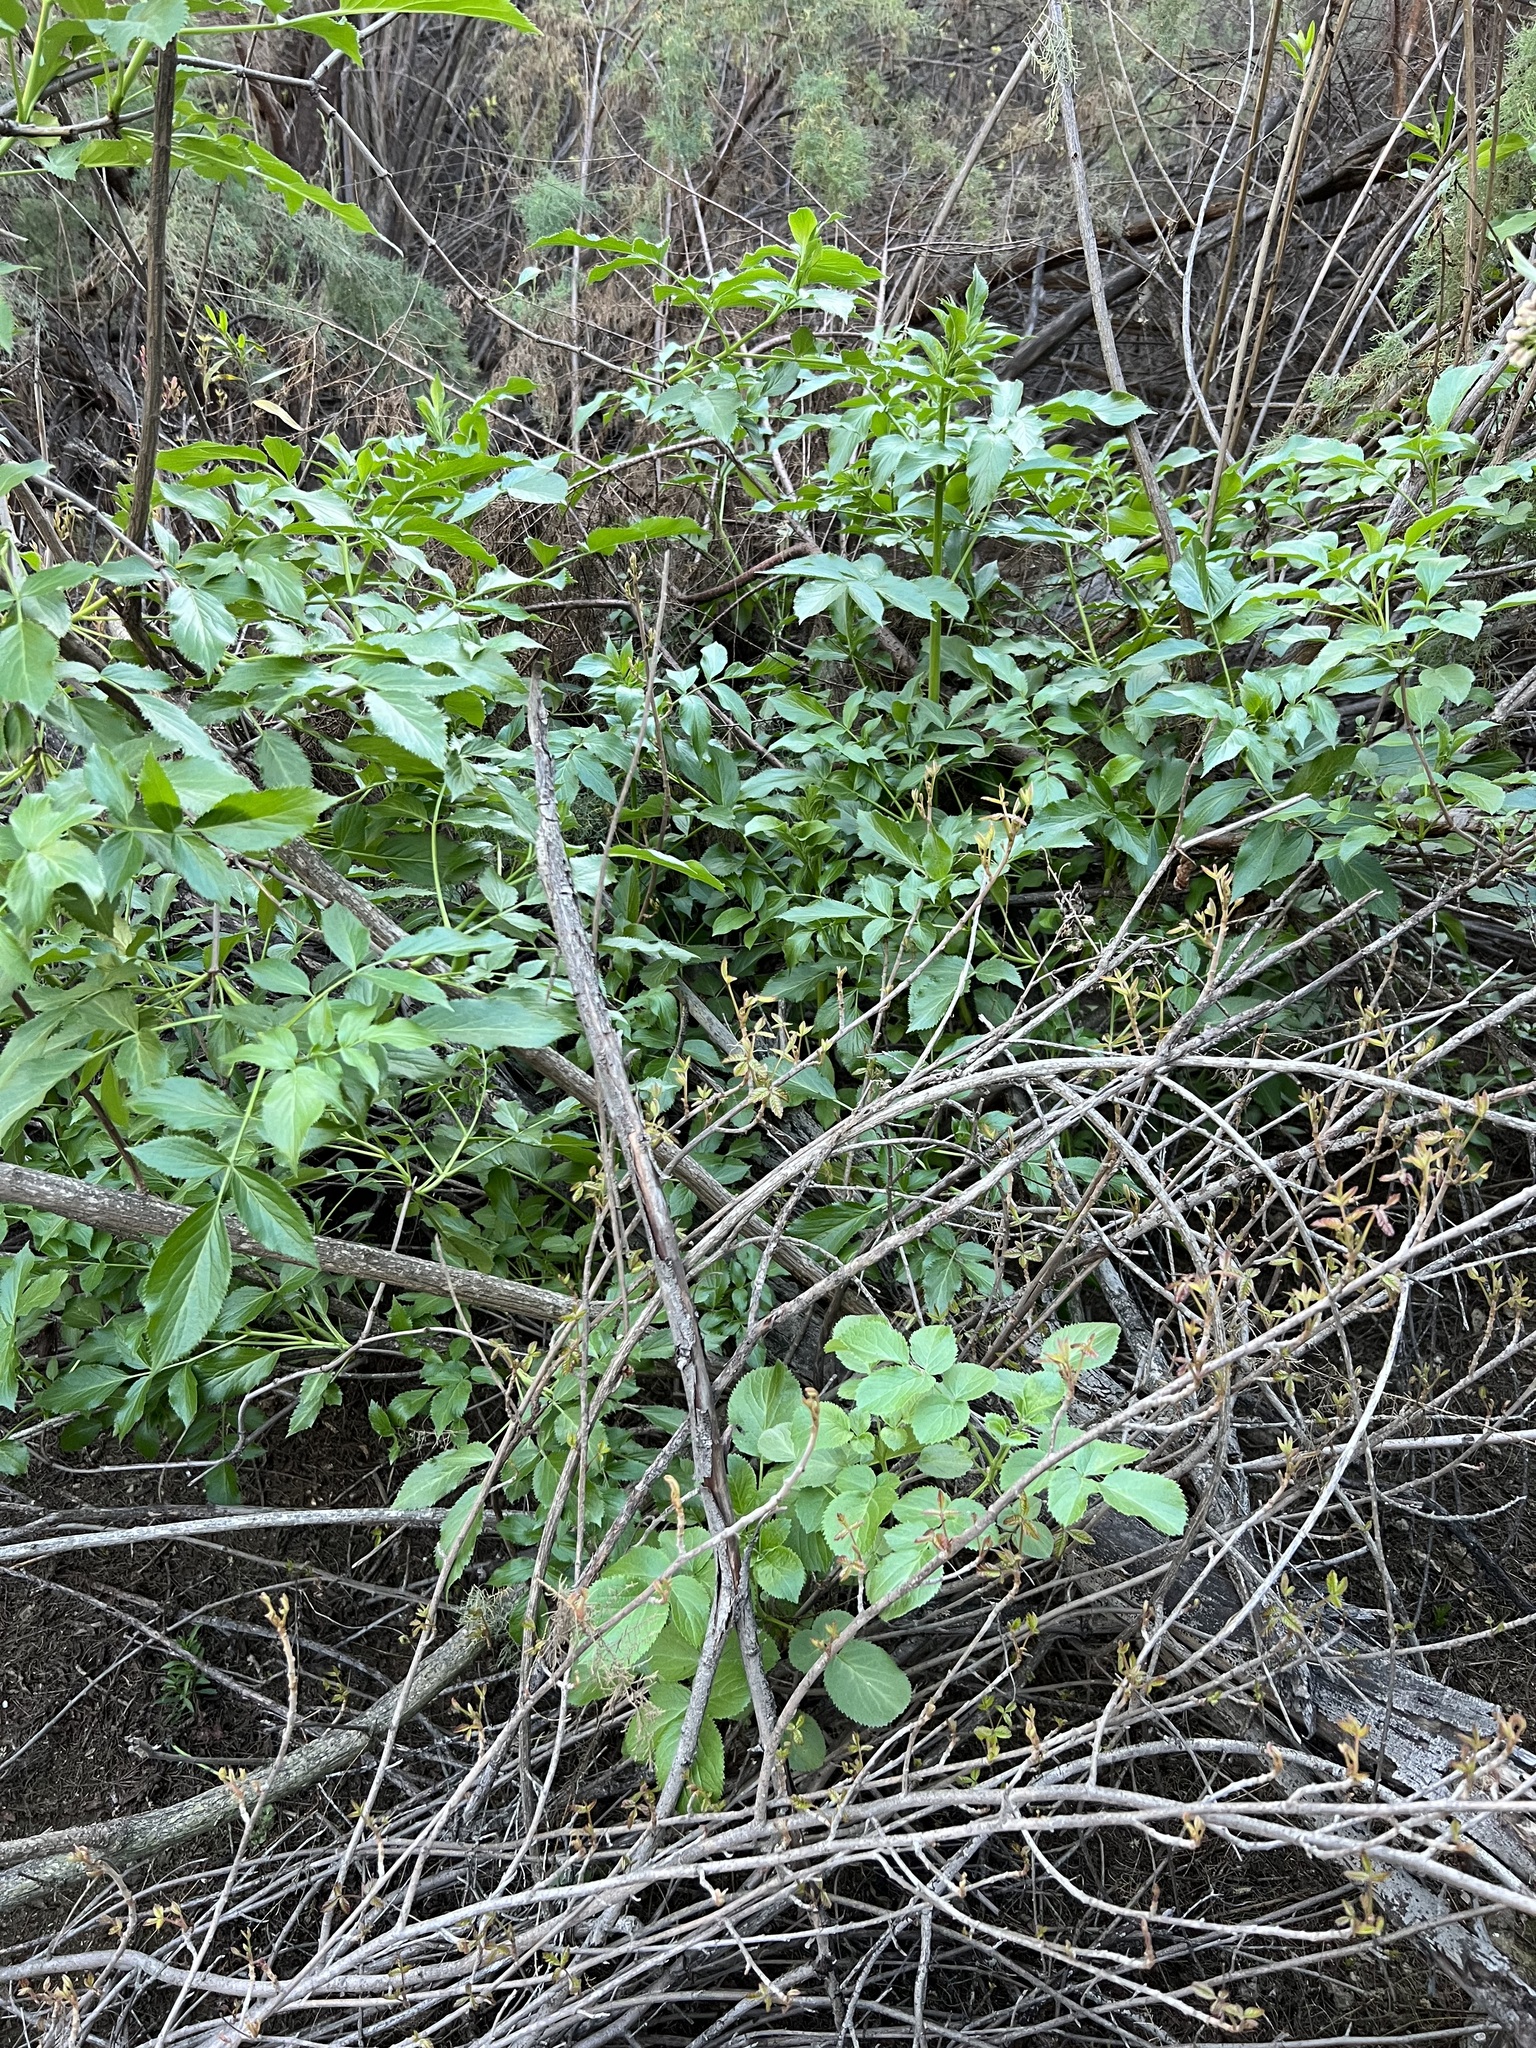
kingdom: Plantae
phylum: Tracheophyta
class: Magnoliopsida
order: Dipsacales
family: Viburnaceae
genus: Sambucus
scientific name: Sambucus cerulea
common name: Blue elder
